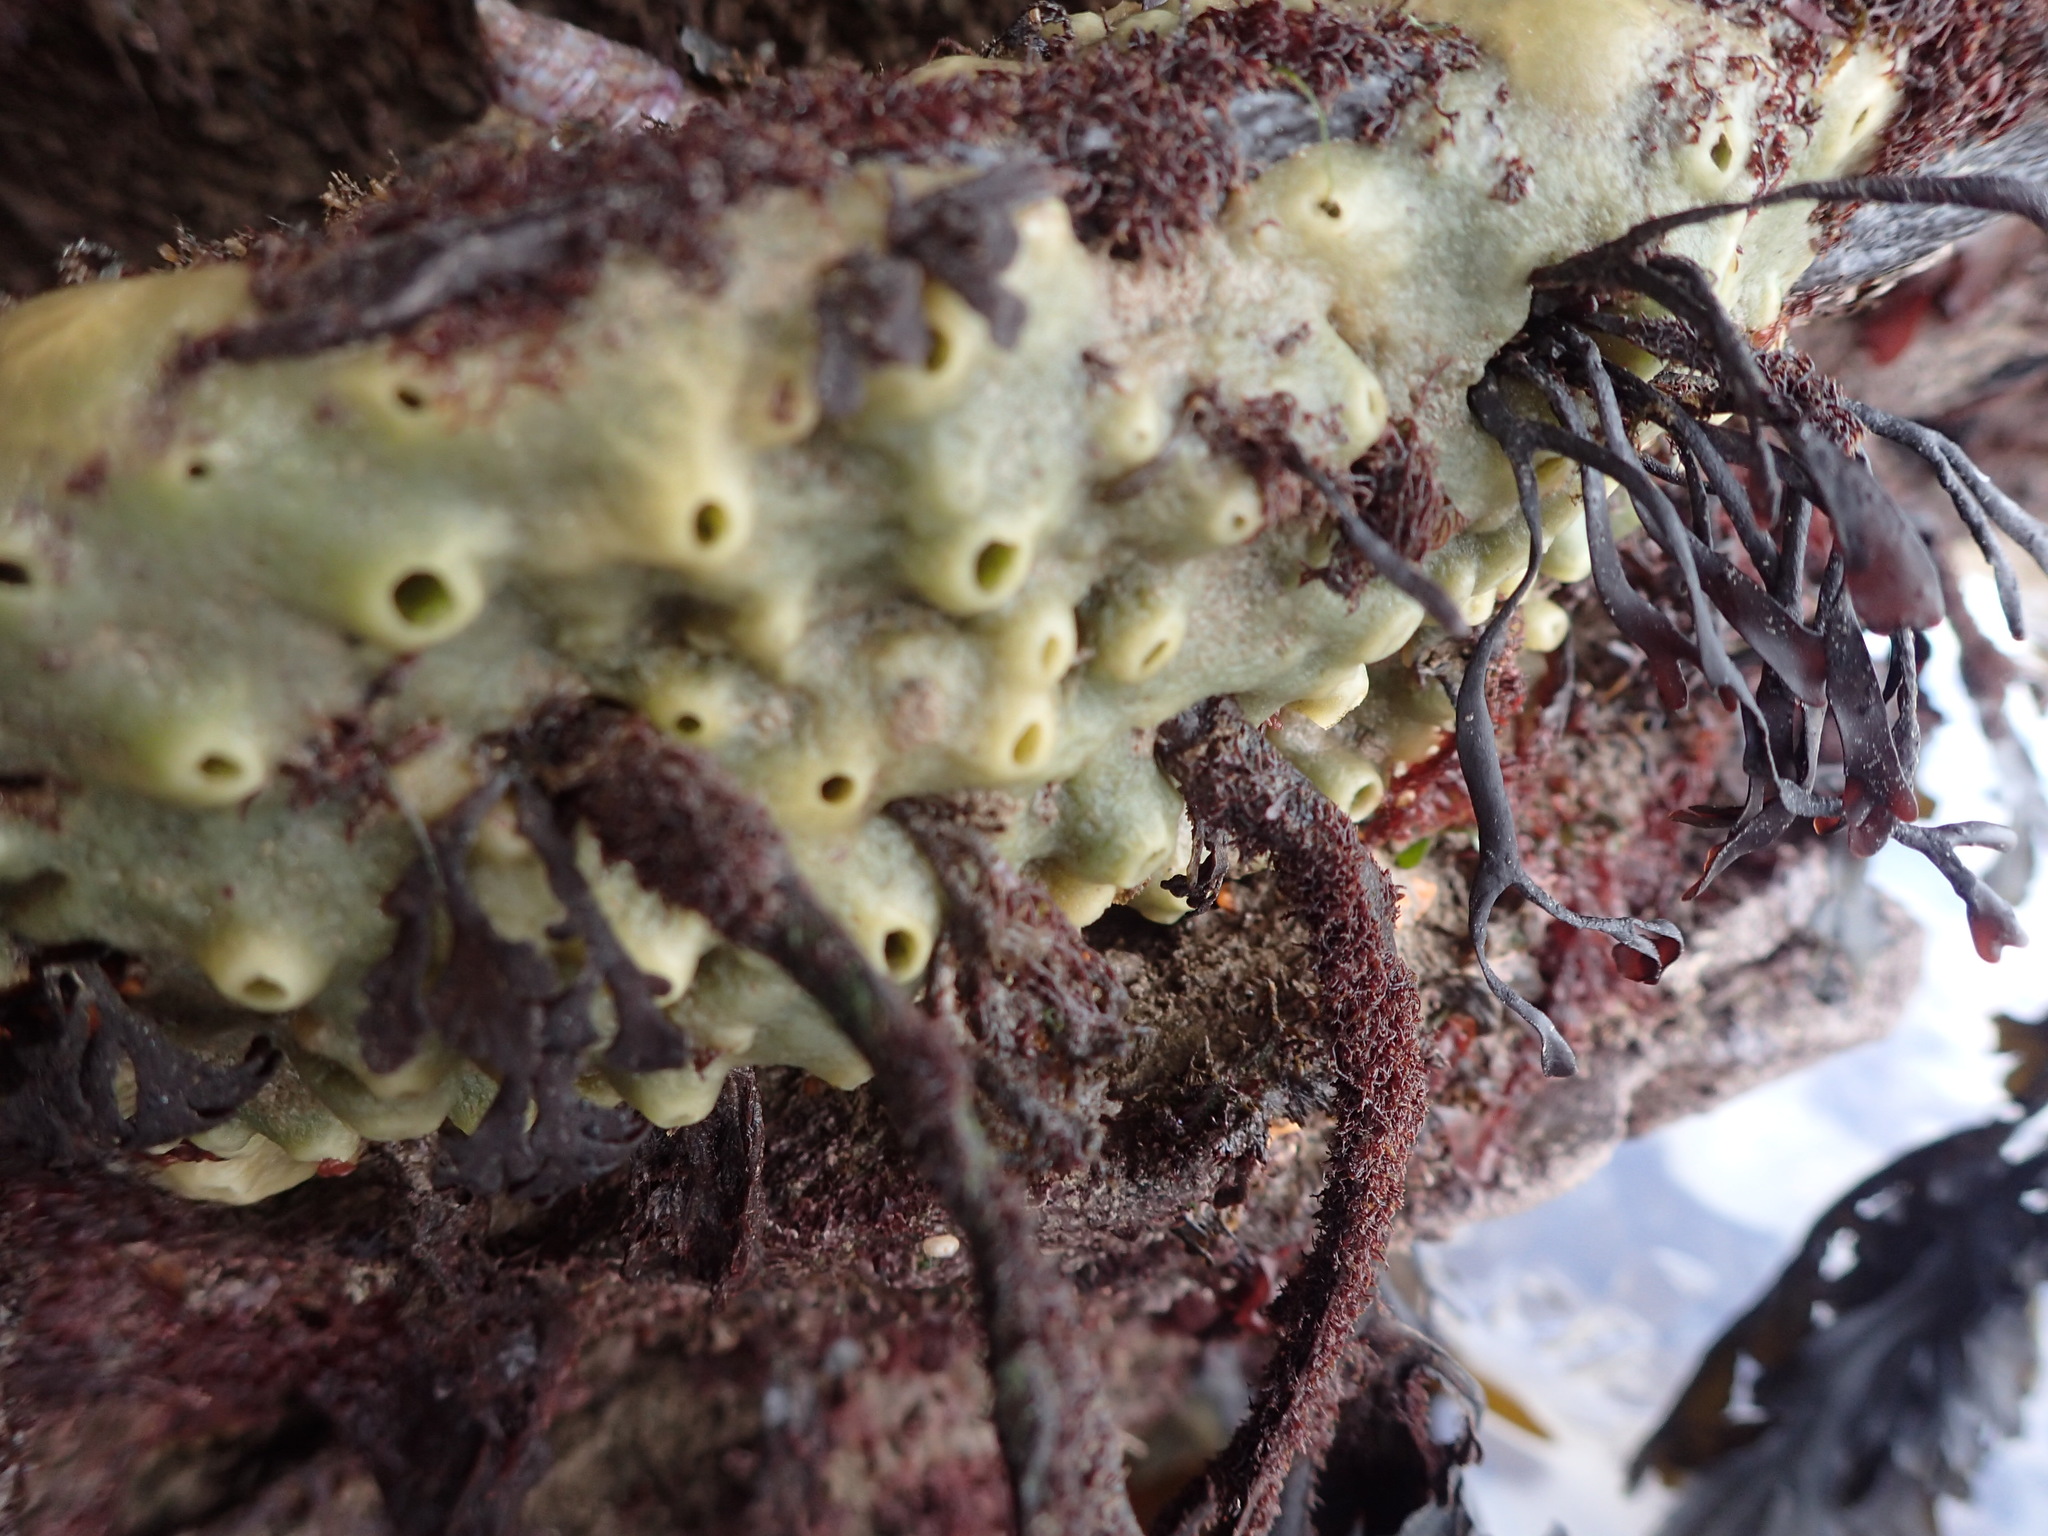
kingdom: Animalia
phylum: Porifera
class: Demospongiae
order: Suberitida
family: Halichondriidae
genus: Halichondria
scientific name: Halichondria panicea
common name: Breadcrumb sponge
